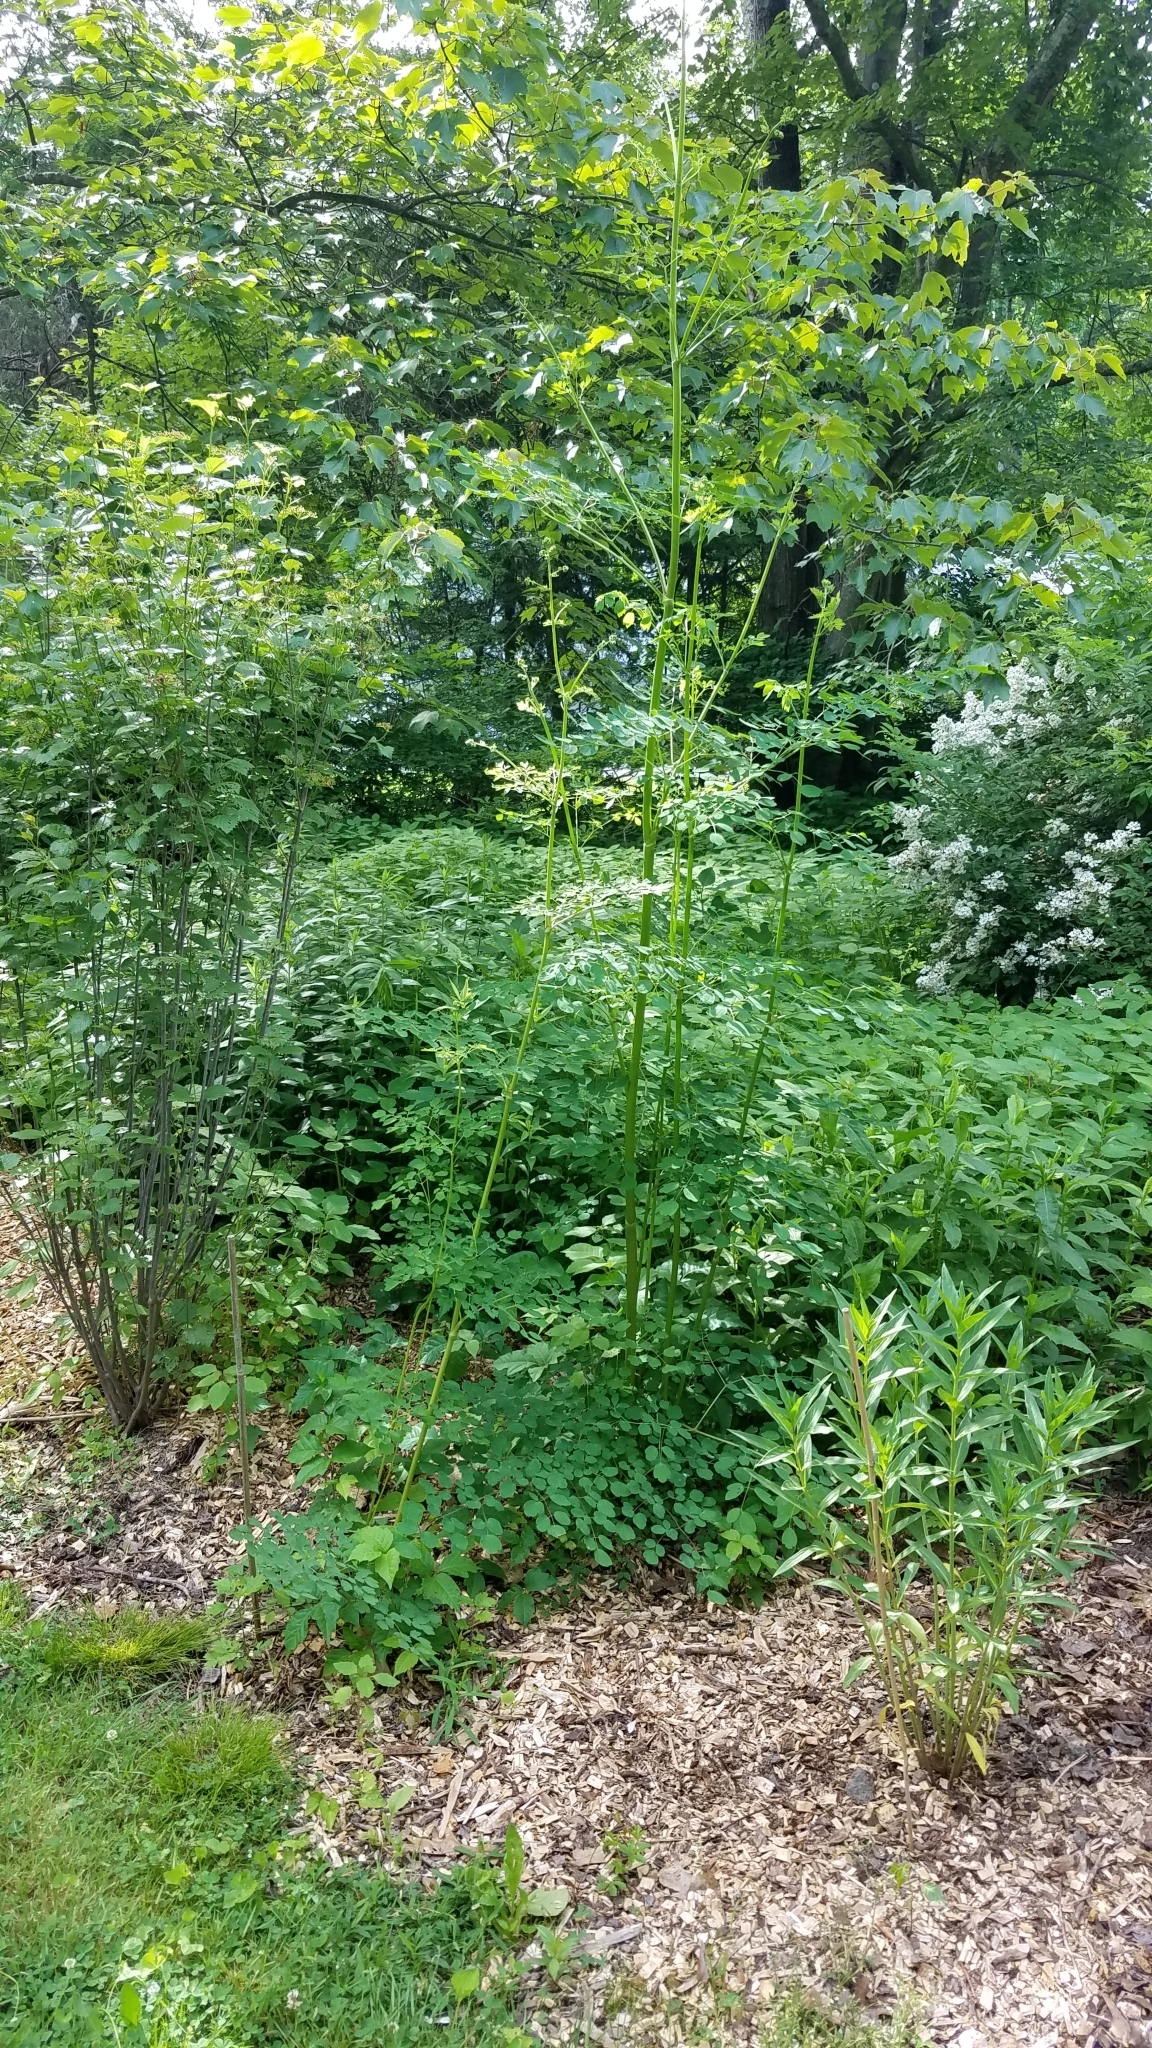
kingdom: Plantae
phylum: Tracheophyta
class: Magnoliopsida
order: Ranunculales
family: Ranunculaceae
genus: Thalictrum
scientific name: Thalictrum pubescens
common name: King-of-the-meadow
